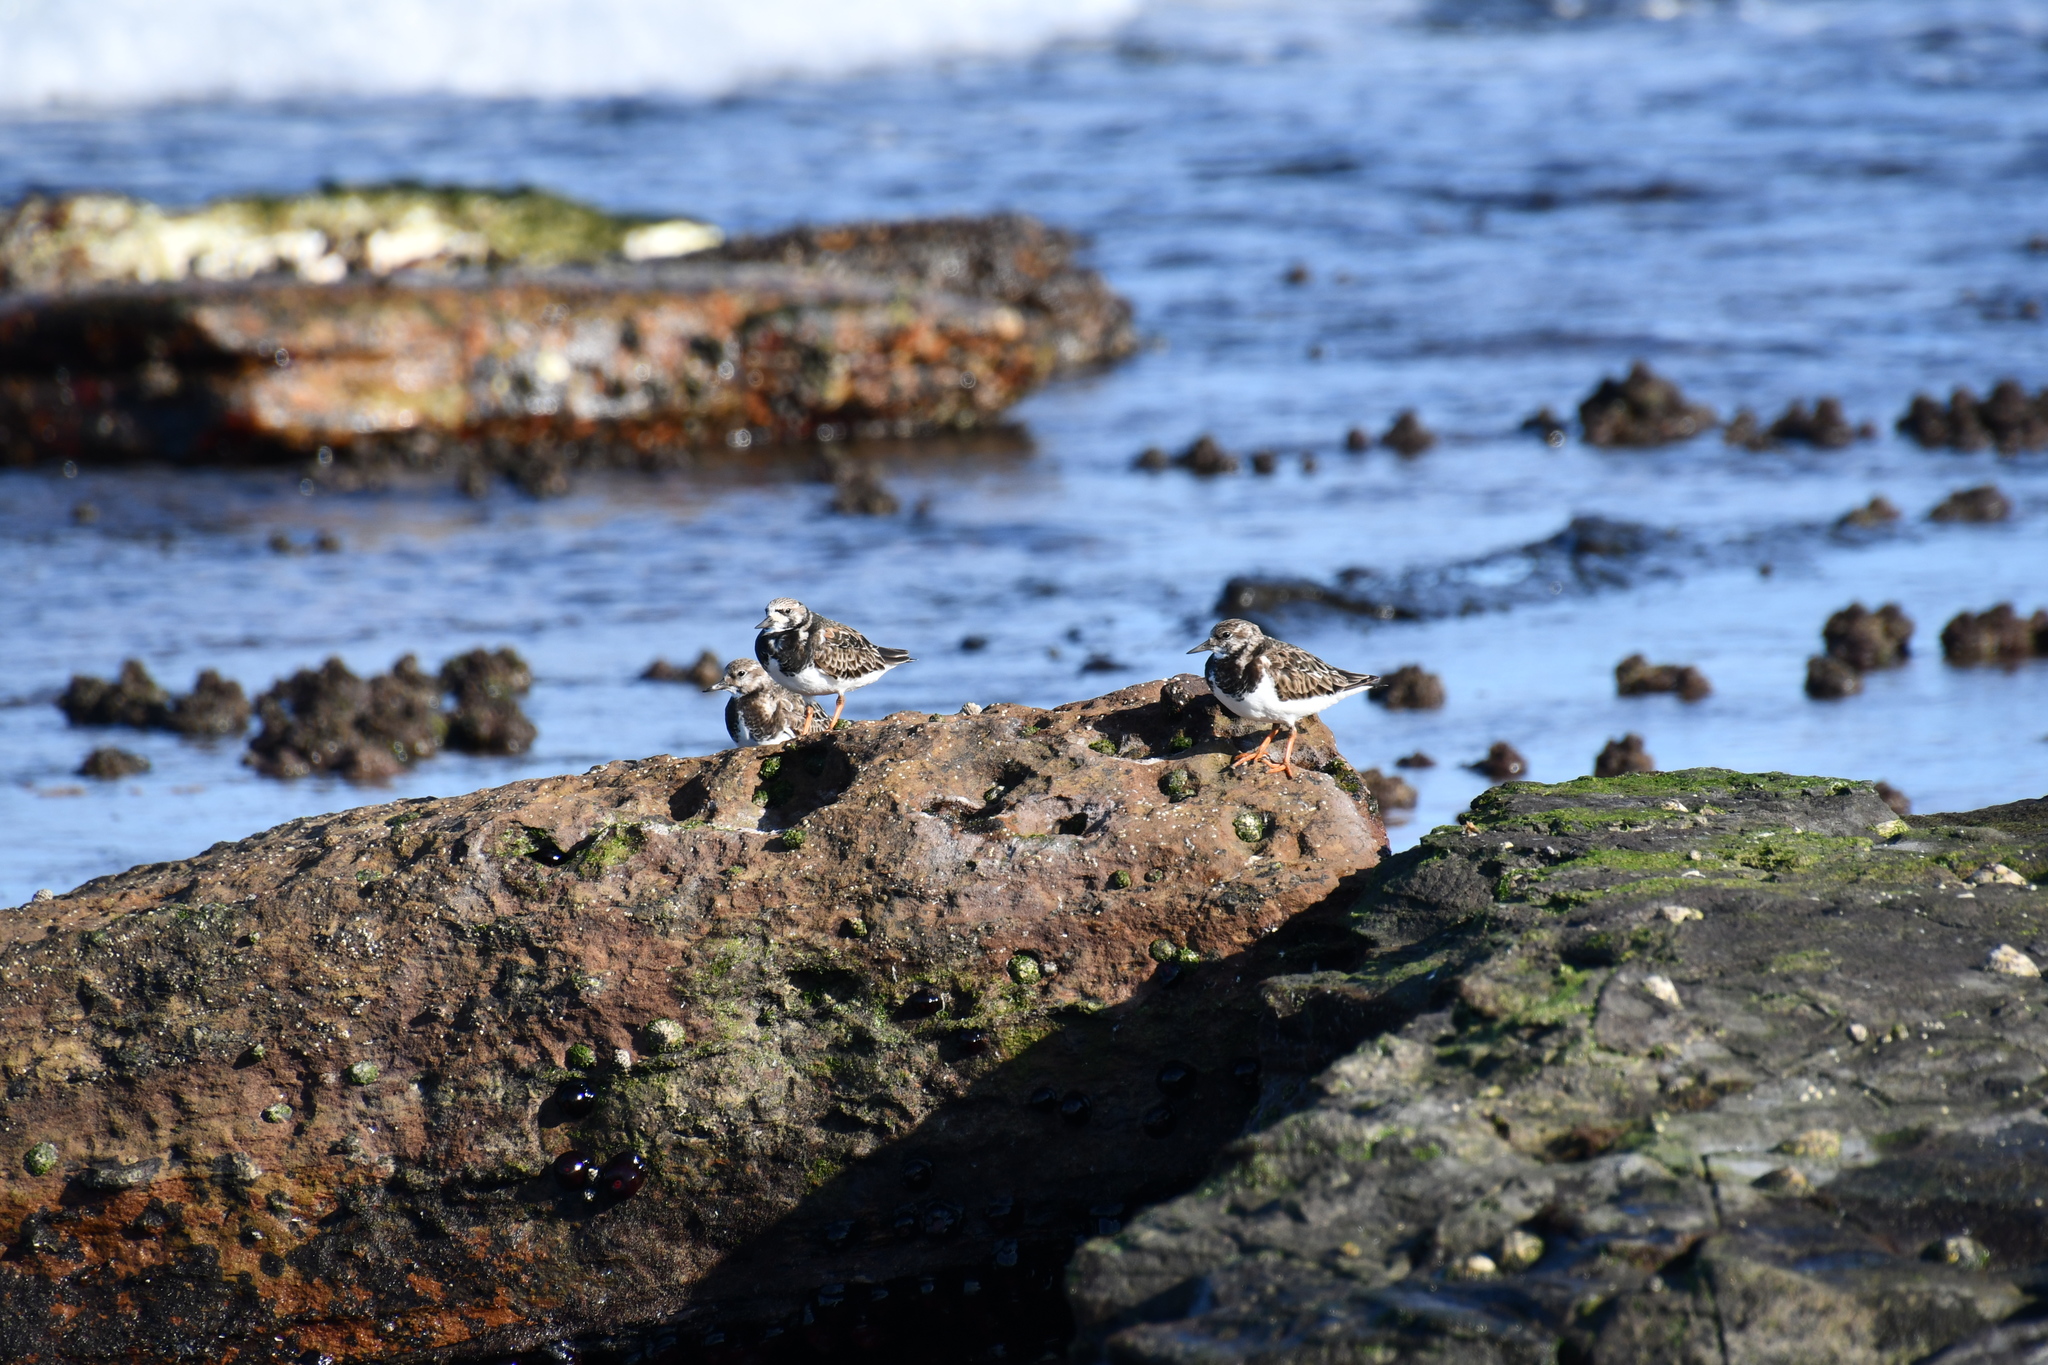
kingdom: Animalia
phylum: Chordata
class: Aves
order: Charadriiformes
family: Scolopacidae
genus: Arenaria
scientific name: Arenaria interpres
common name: Ruddy turnstone
